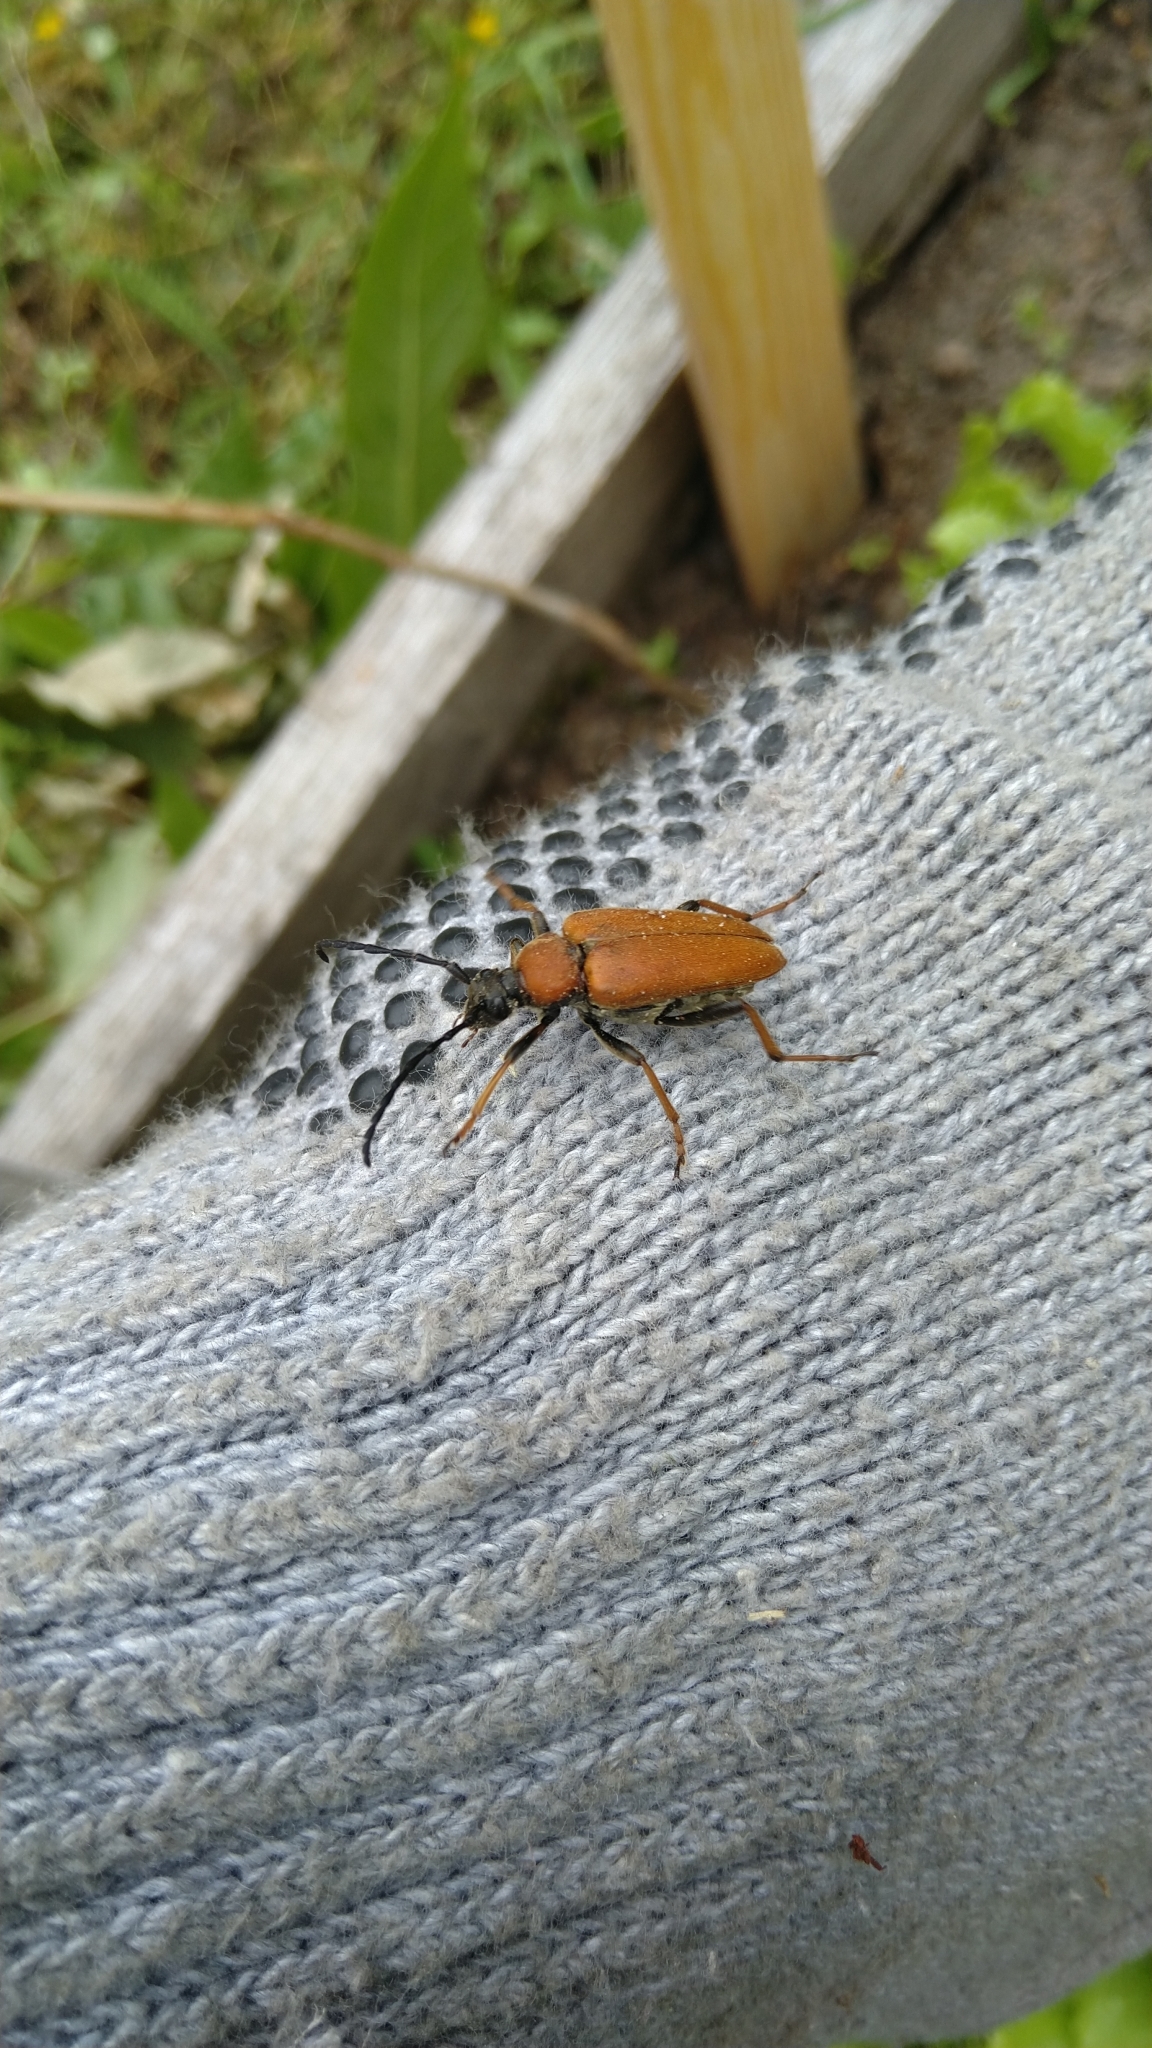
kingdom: Animalia
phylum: Arthropoda
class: Insecta
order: Coleoptera
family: Cerambycidae
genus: Stictoleptura
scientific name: Stictoleptura rubra
